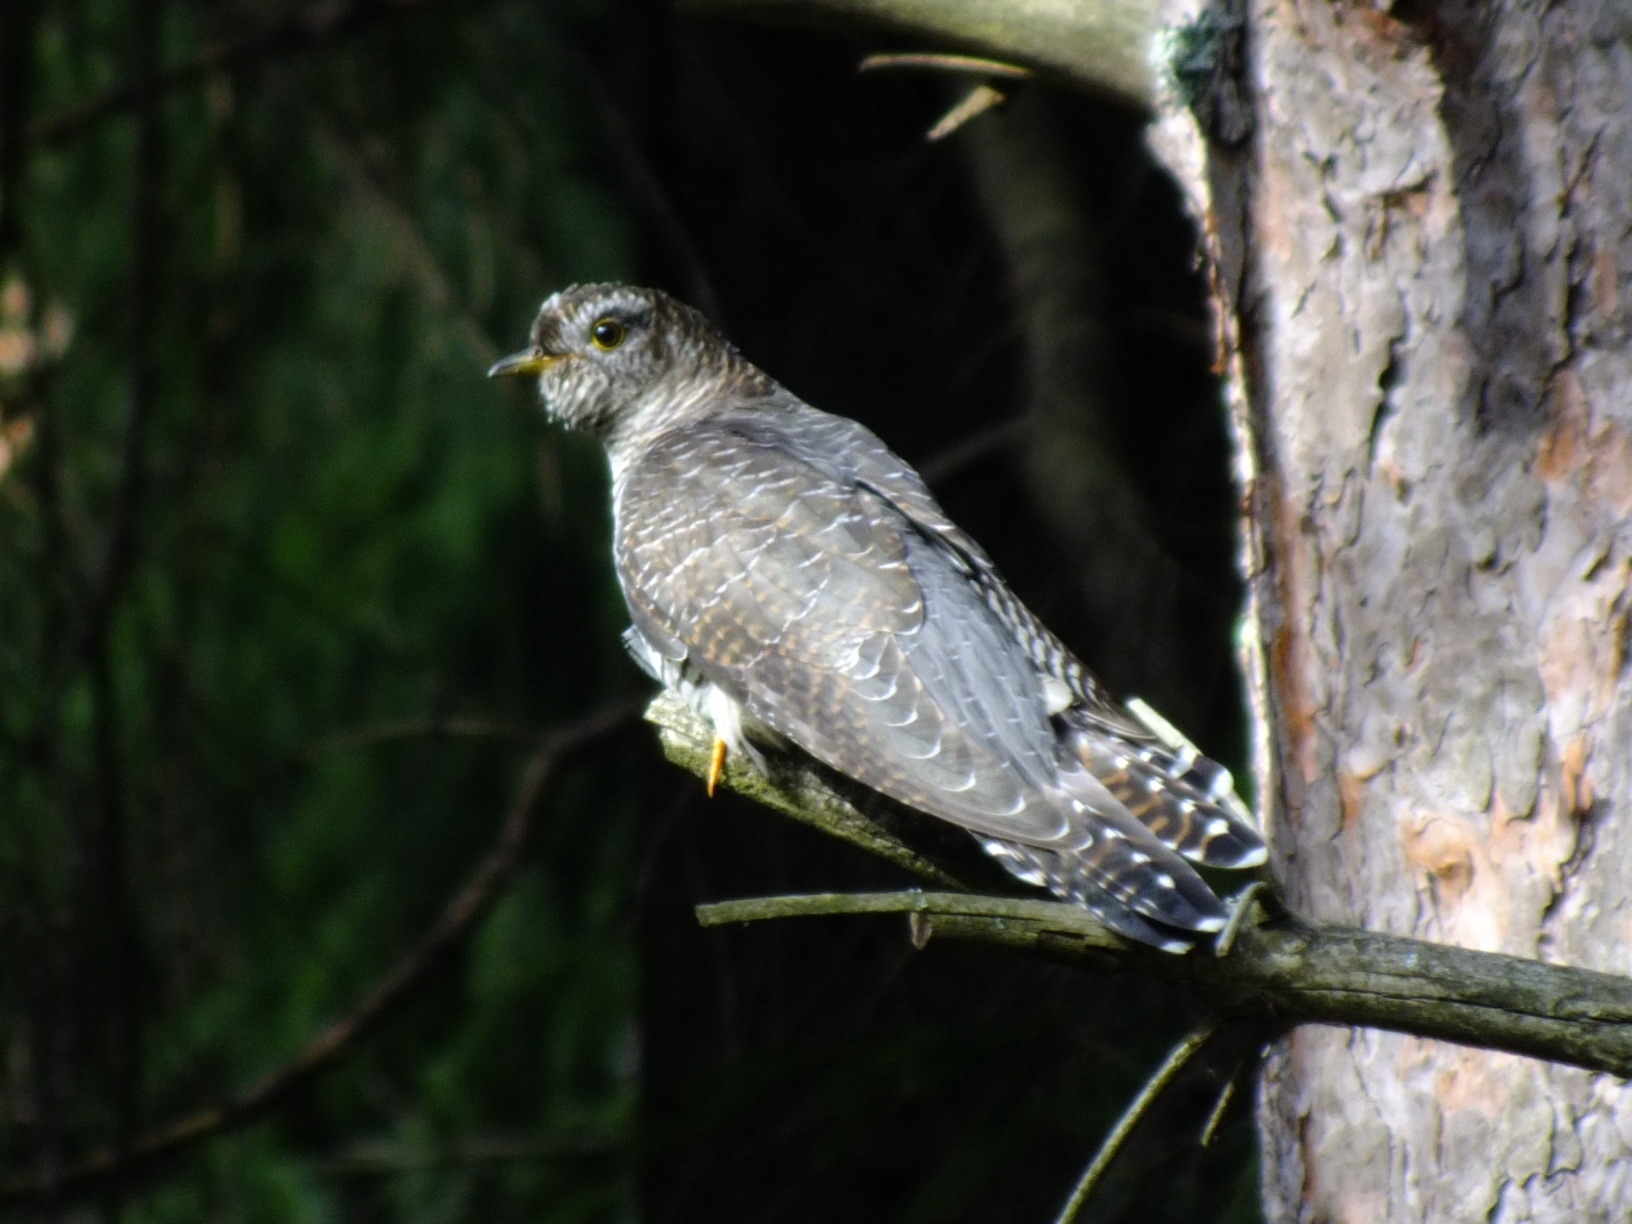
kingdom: Animalia
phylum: Chordata
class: Aves
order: Cuculiformes
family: Cuculidae
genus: Cuculus
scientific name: Cuculus canorus
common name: Common cuckoo
